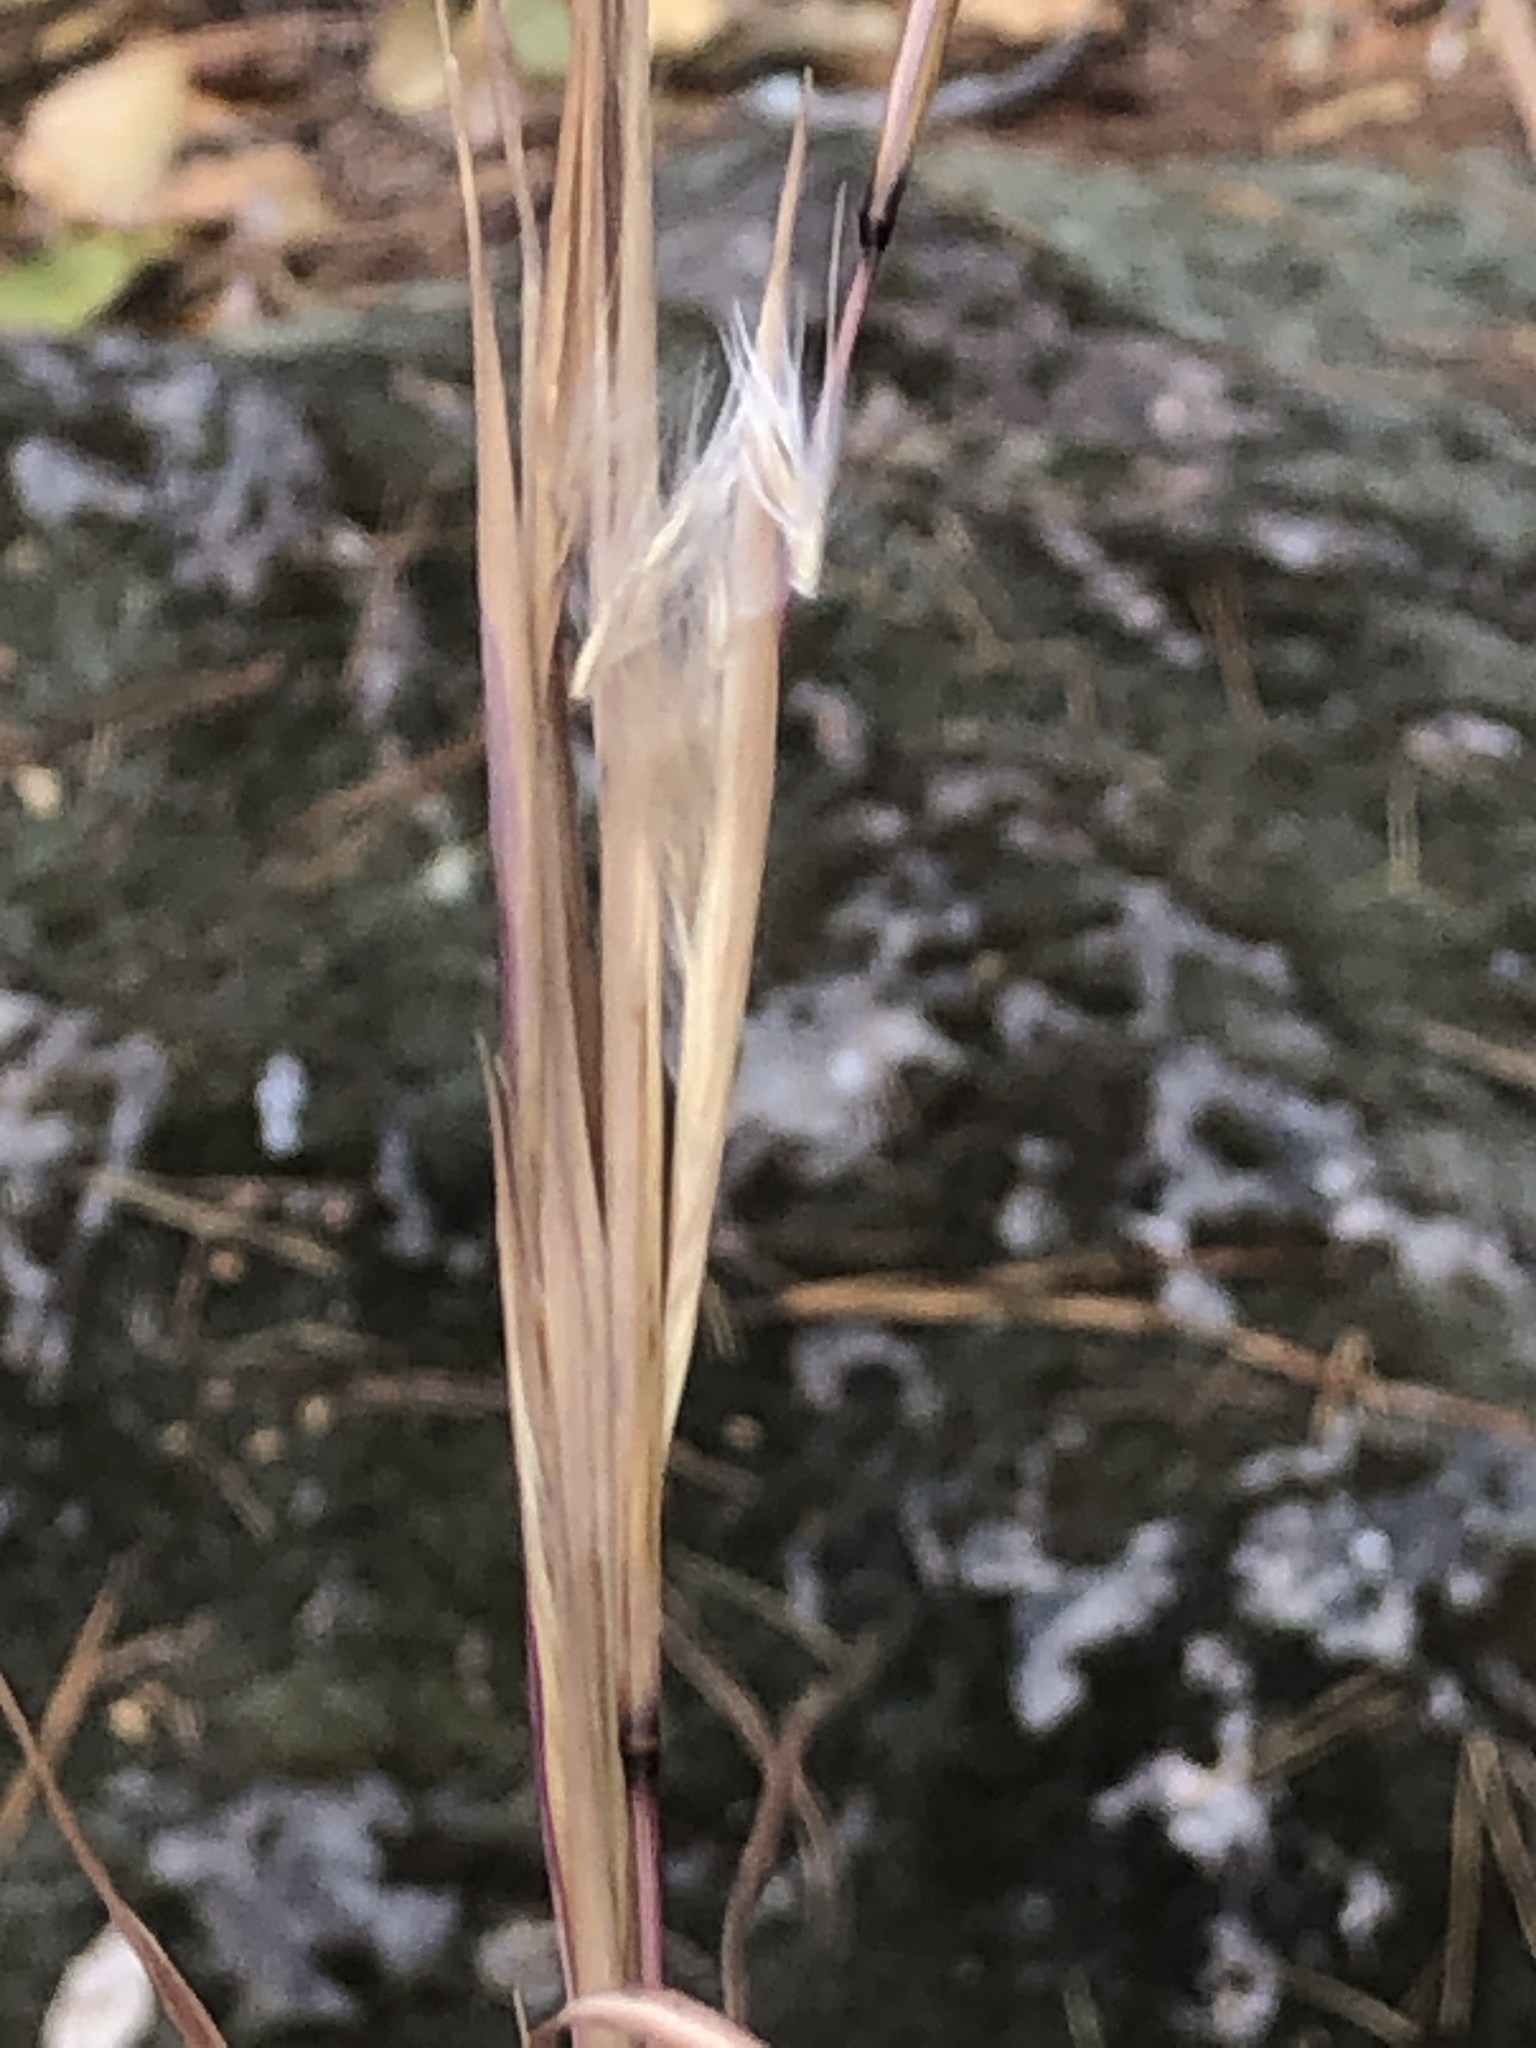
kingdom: Plantae
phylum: Tracheophyta
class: Liliopsida
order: Poales
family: Poaceae
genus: Andropogon
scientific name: Andropogon virginicus
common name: Broomsedge bluestem
